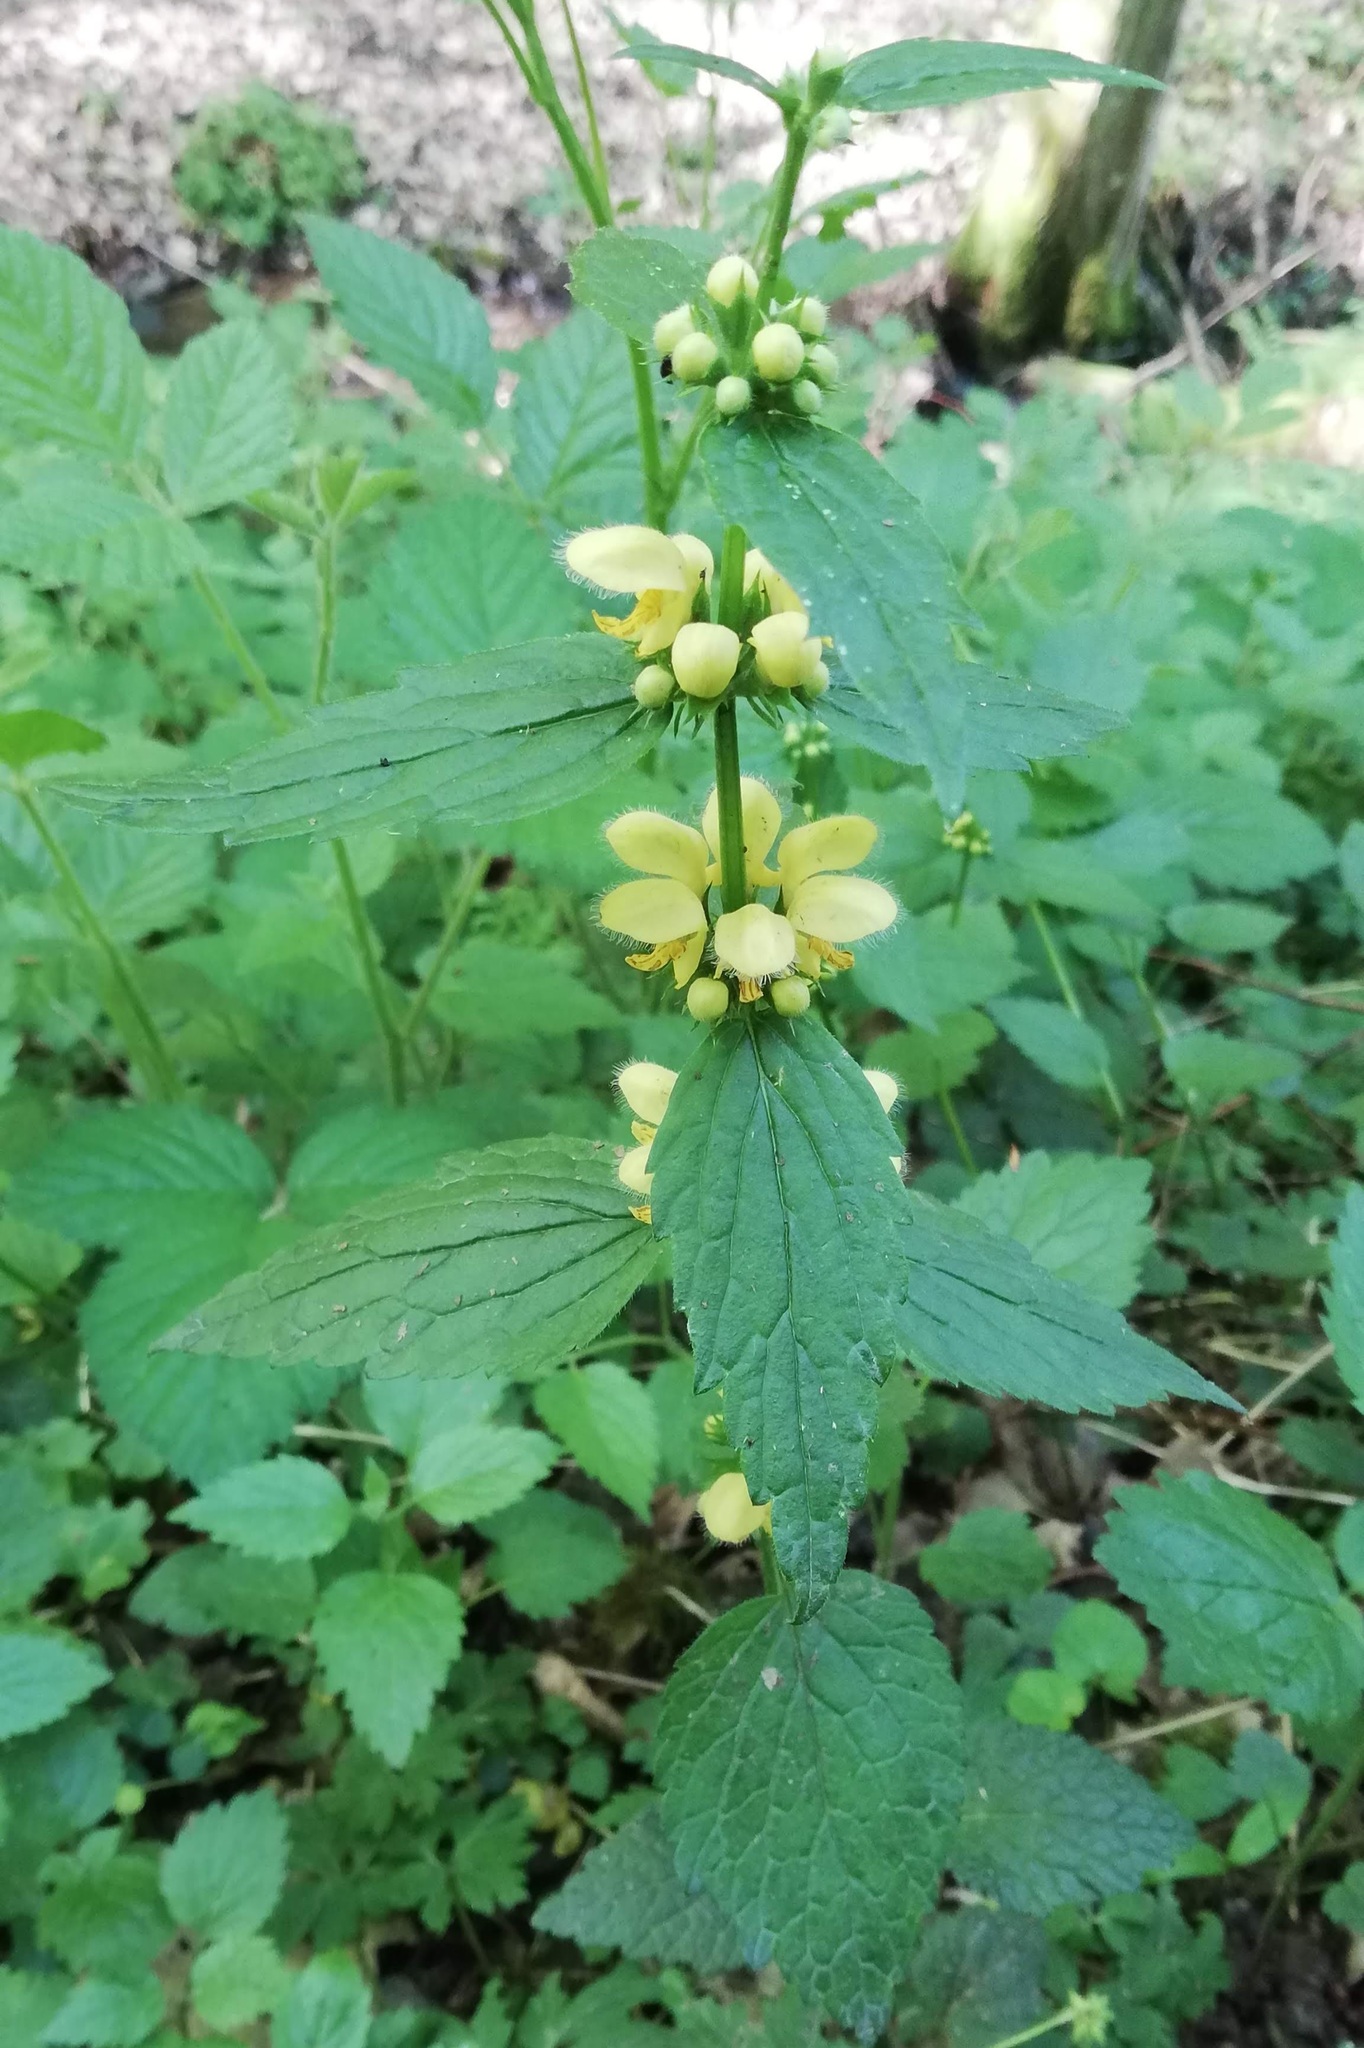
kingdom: Plantae
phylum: Tracheophyta
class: Magnoliopsida
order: Lamiales
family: Lamiaceae
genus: Lamium
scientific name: Lamium galeobdolon
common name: Yellow archangel
